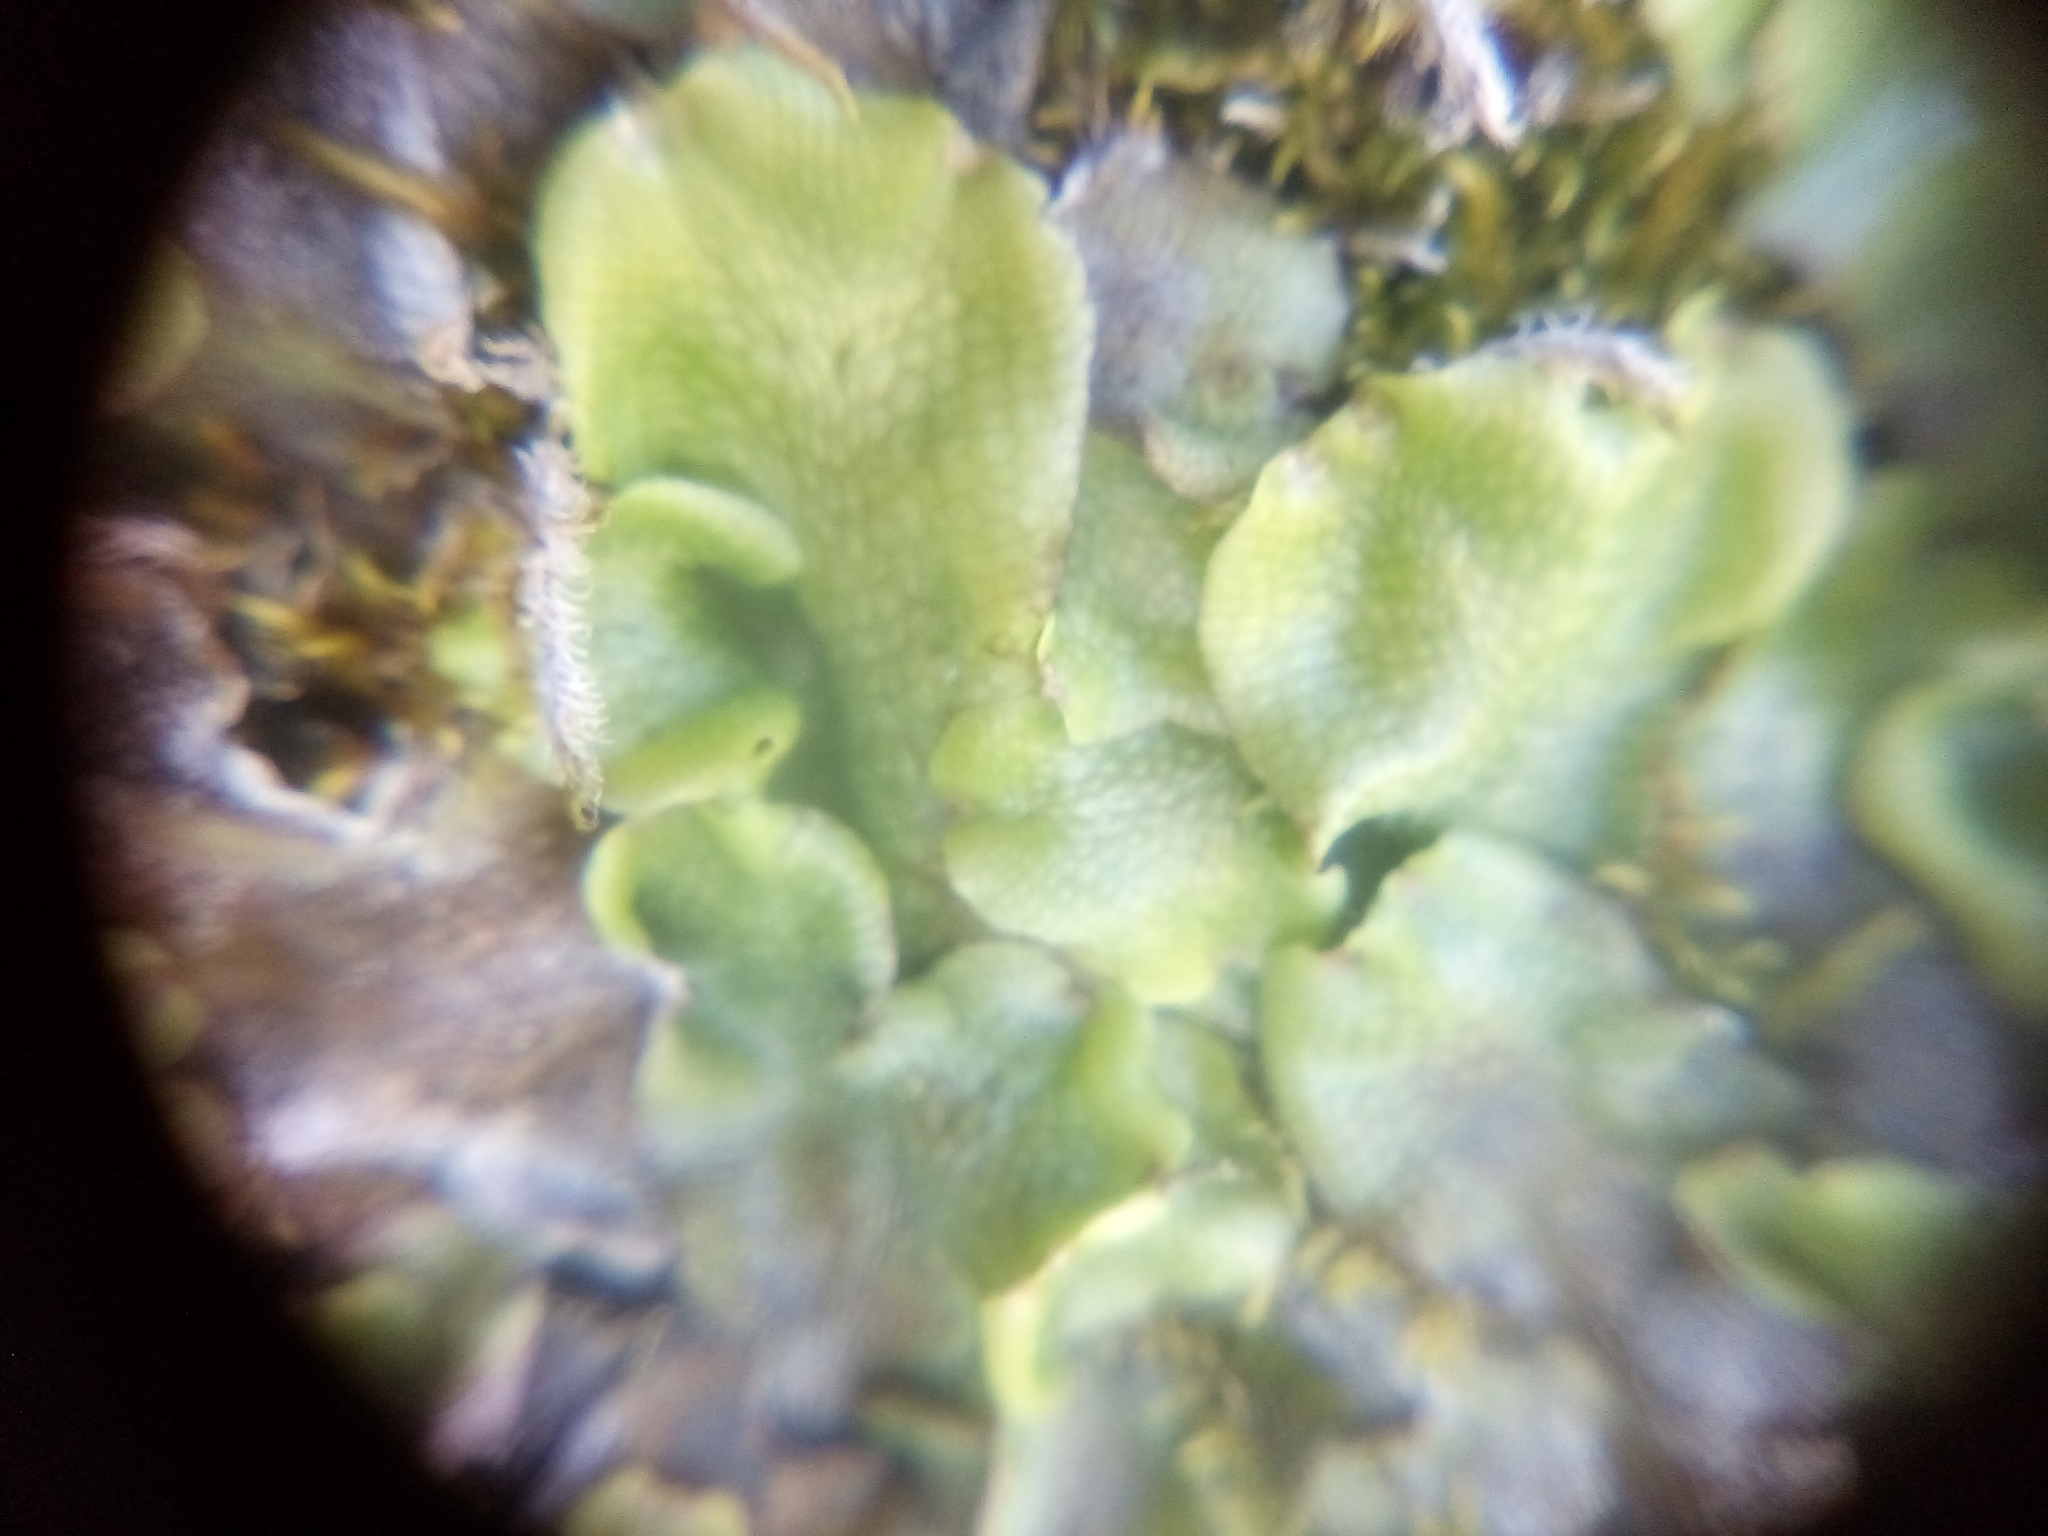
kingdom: Plantae
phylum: Marchantiophyta
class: Marchantiopsida
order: Marchantiales
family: Conocephalaceae
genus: Conocephalum
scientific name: Conocephalum conicum
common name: Great scented liverwort
